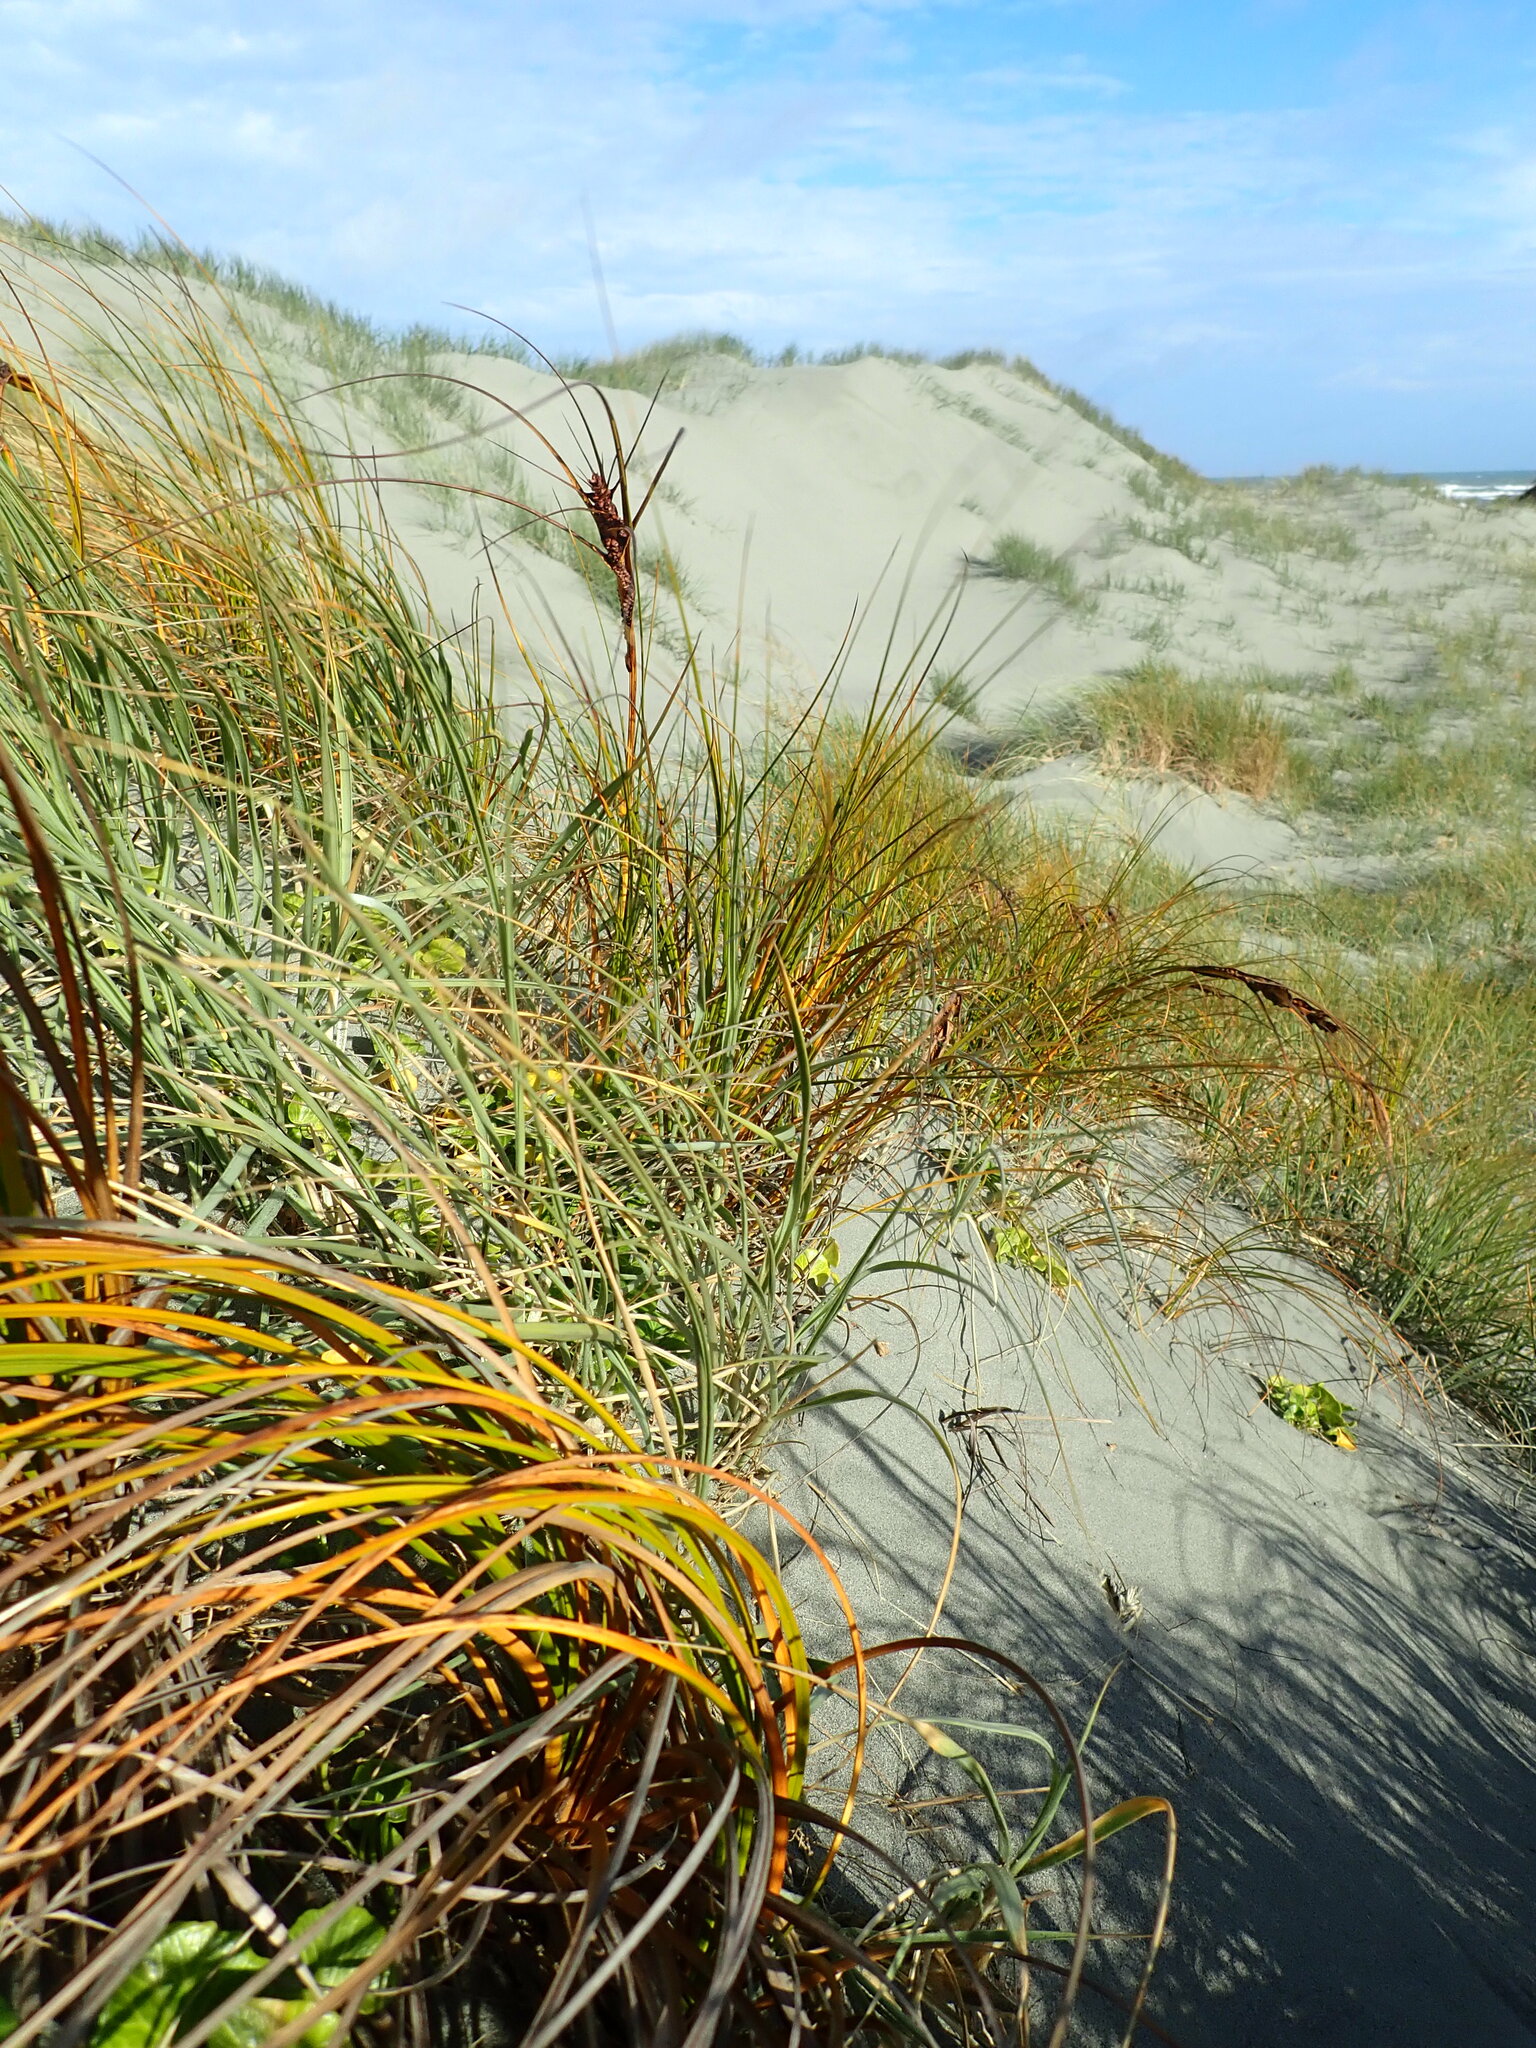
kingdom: Plantae
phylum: Tracheophyta
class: Liliopsida
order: Poales
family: Cyperaceae
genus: Ficinia
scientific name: Ficinia spiralis
